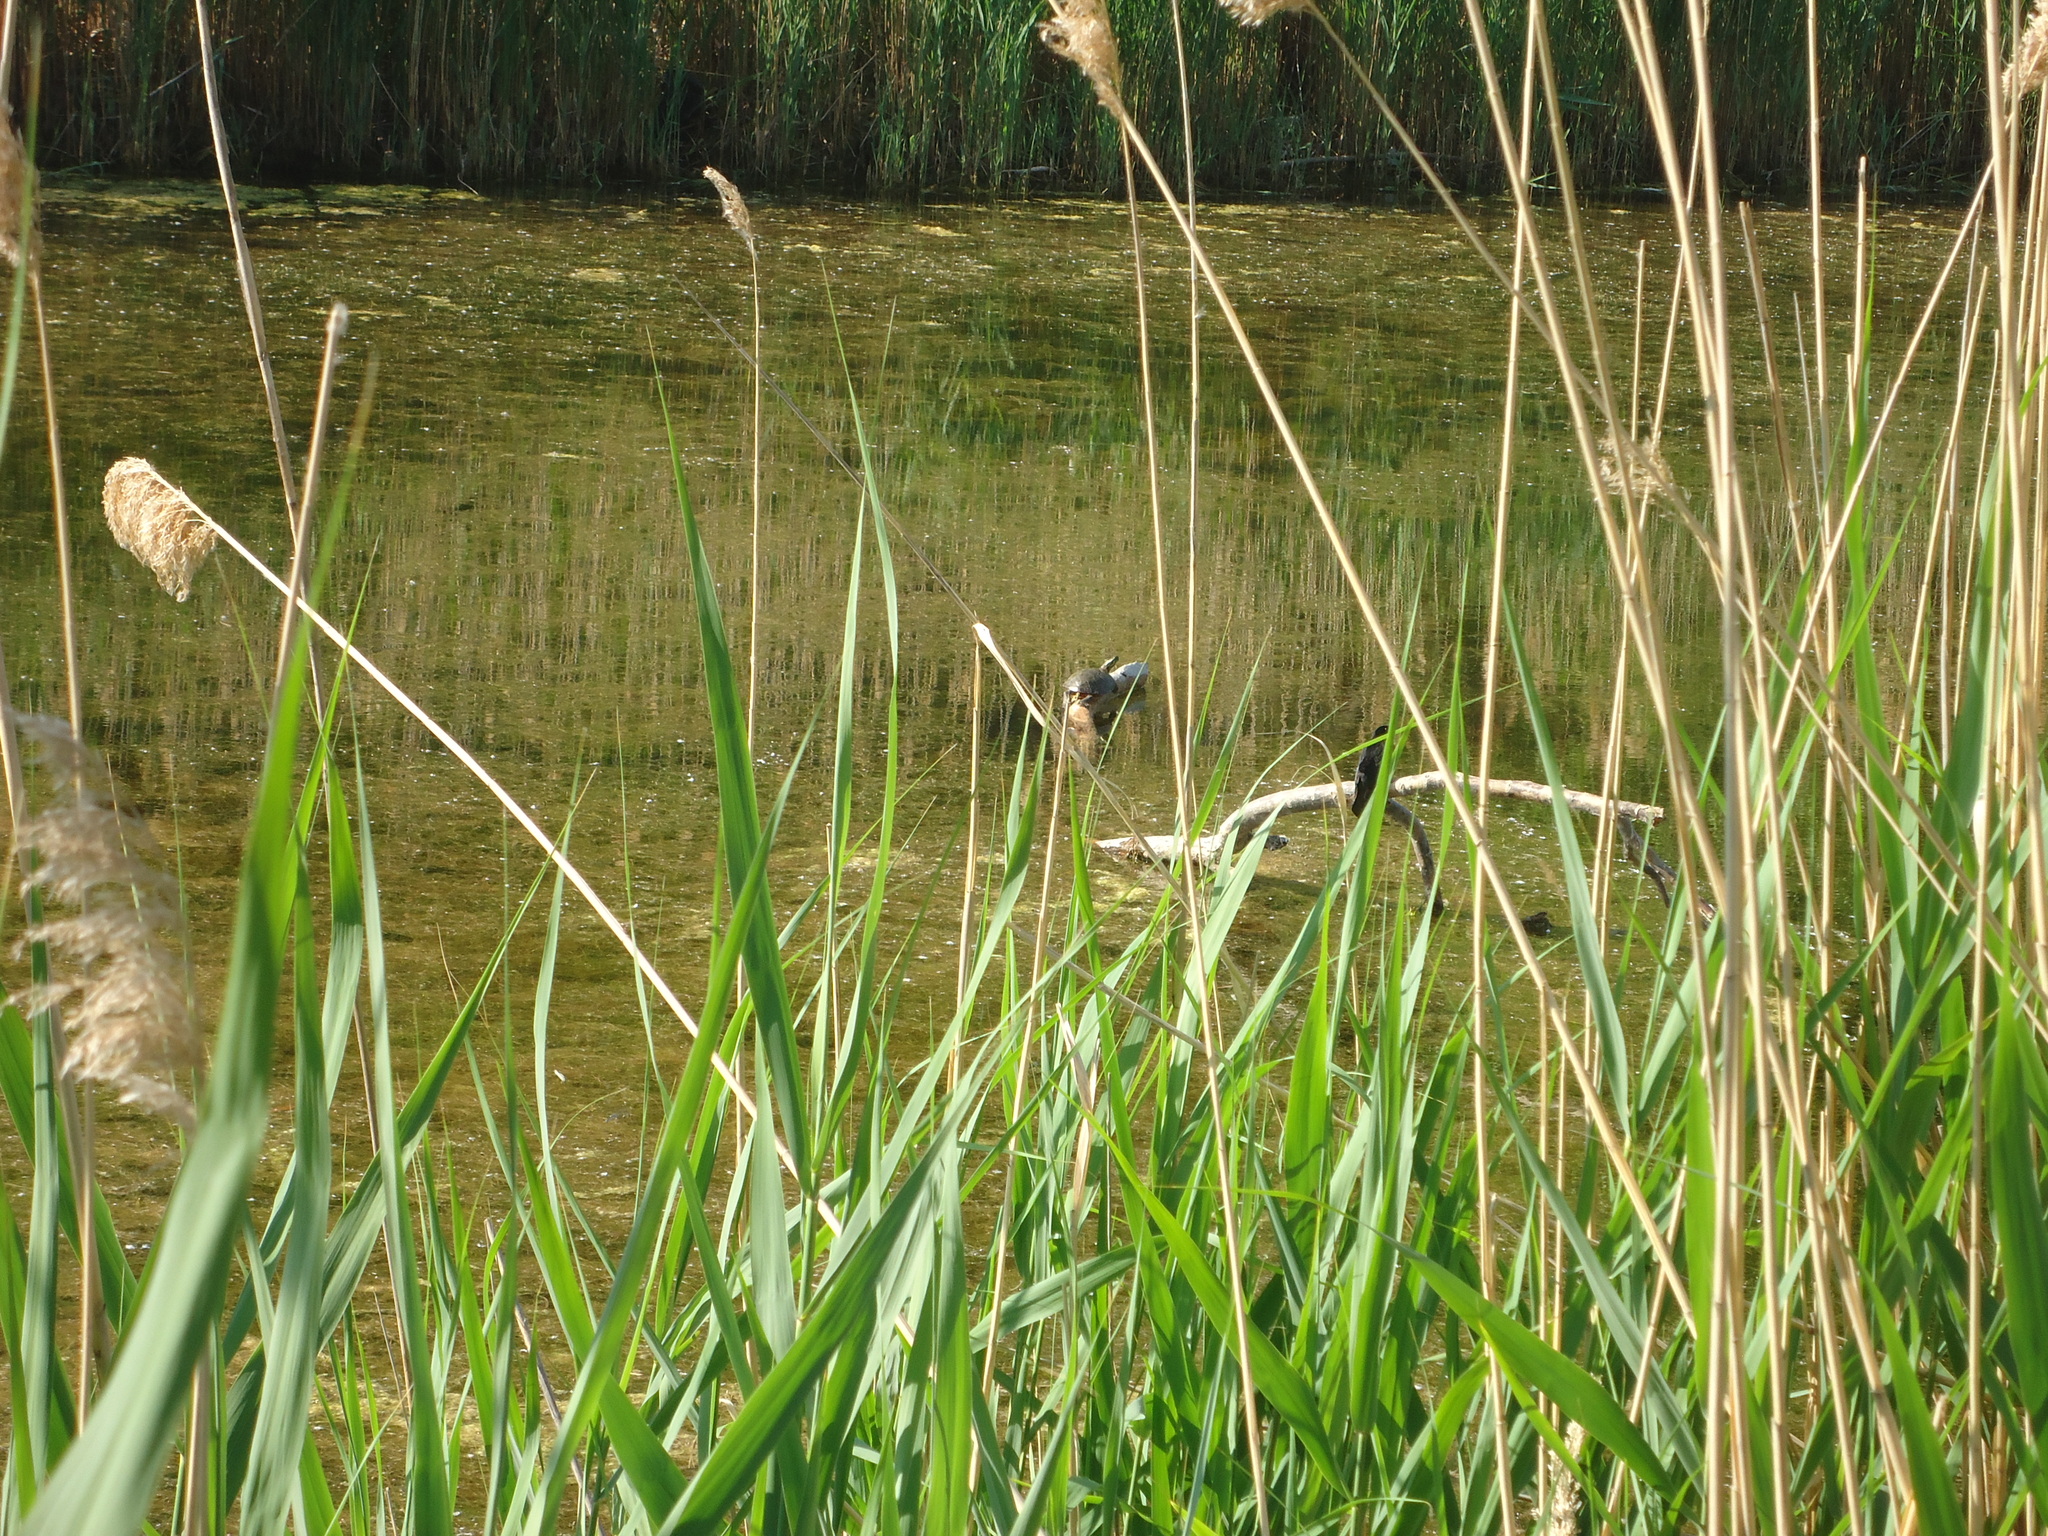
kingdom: Animalia
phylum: Chordata
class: Testudines
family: Emydidae
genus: Chrysemys
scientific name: Chrysemys picta
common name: Painted turtle
